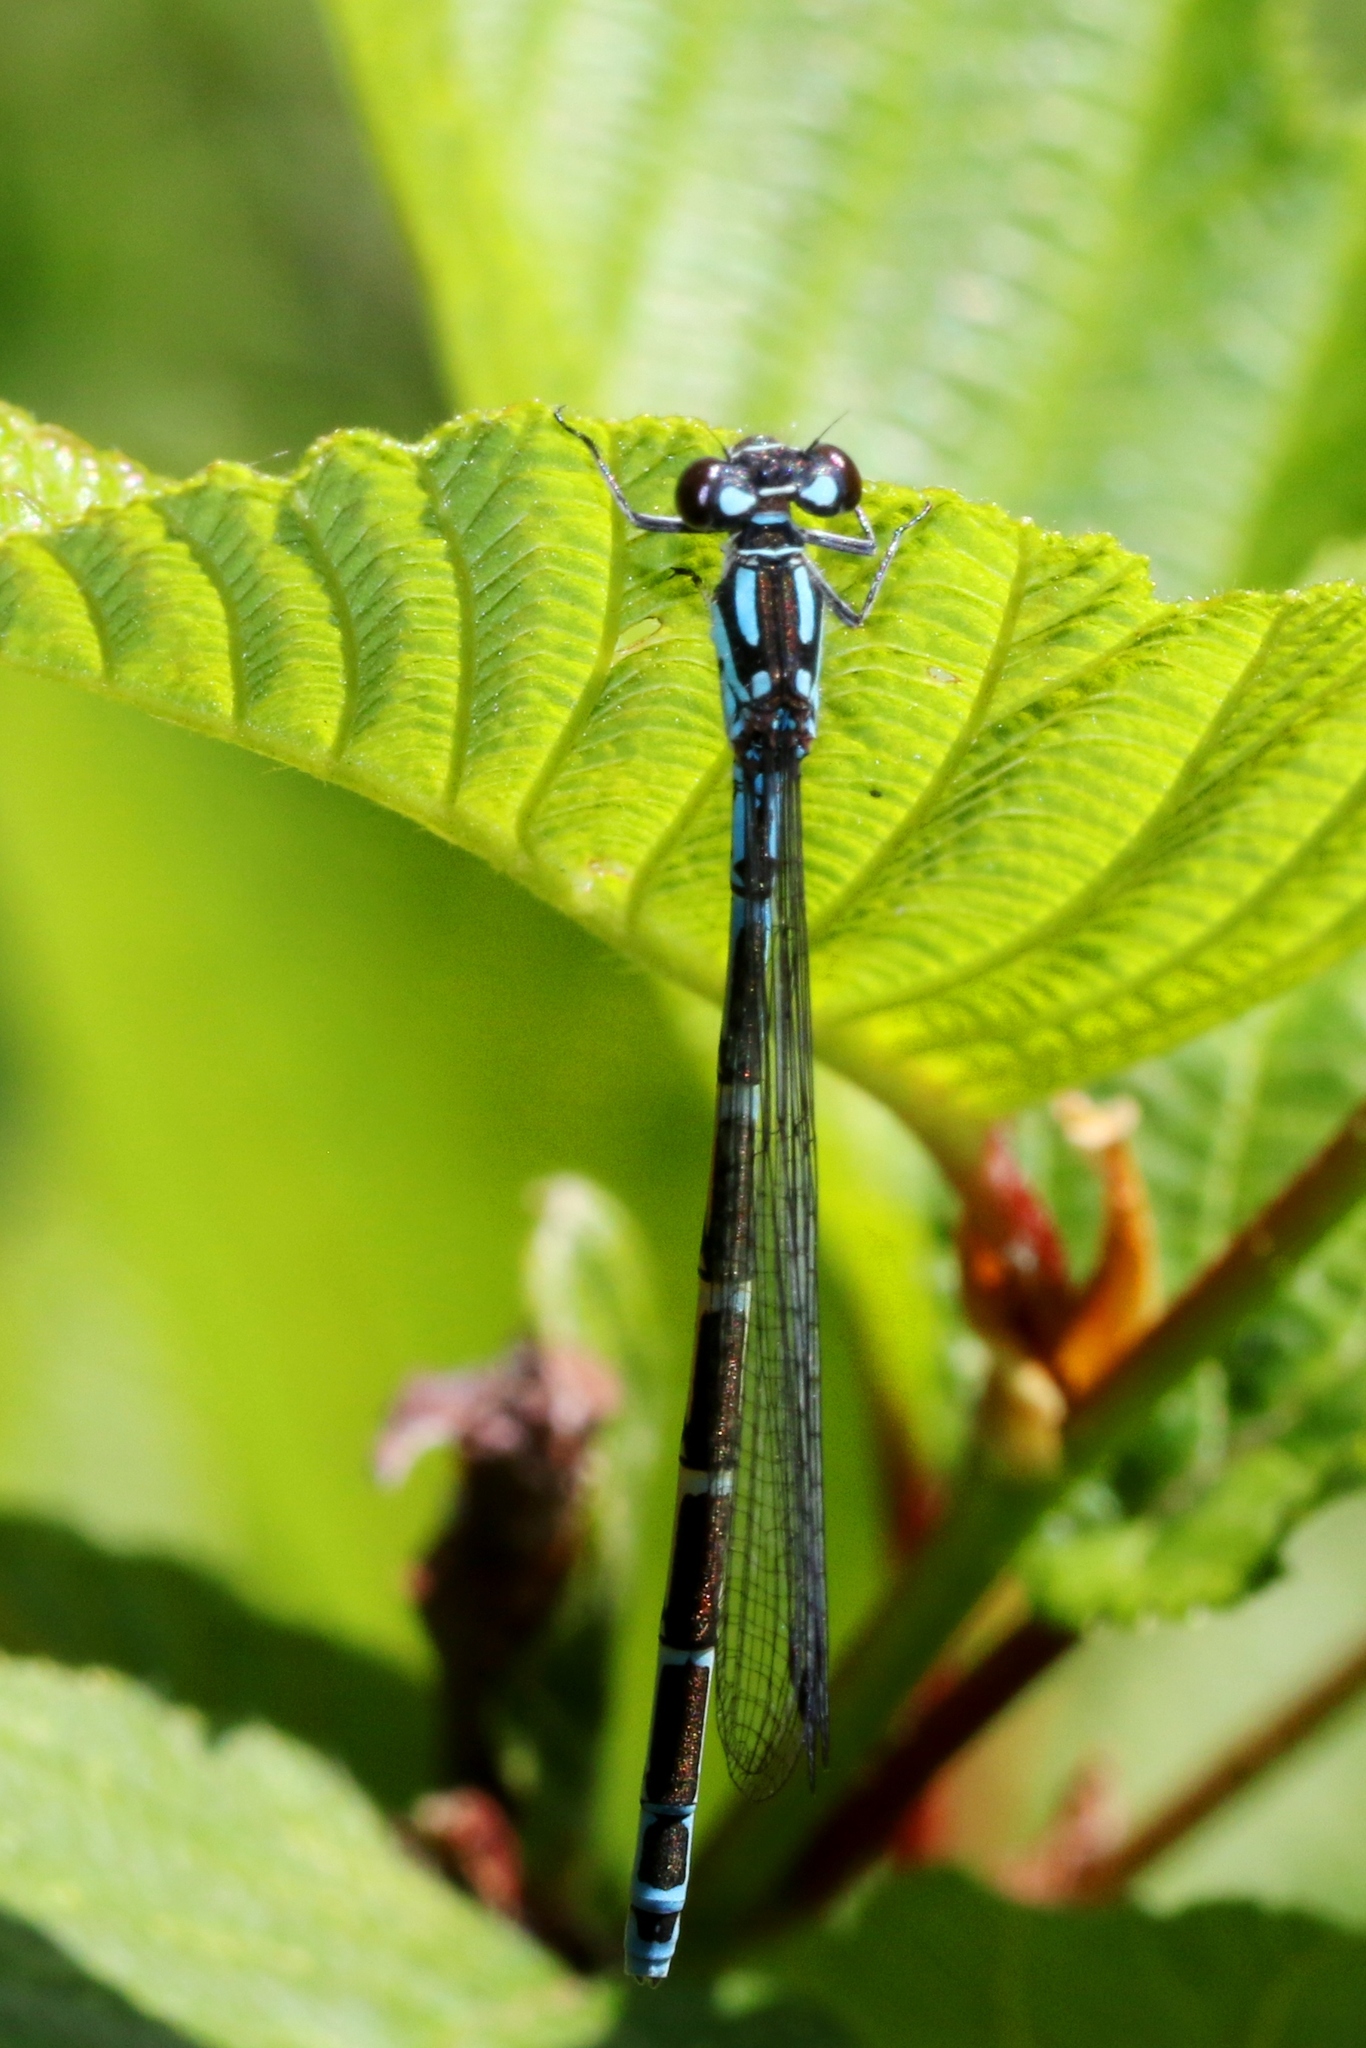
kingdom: Animalia
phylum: Arthropoda
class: Insecta
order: Odonata
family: Coenagrionidae
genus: Coenagrion
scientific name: Coenagrion interrogatum
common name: Subarctic bluet
